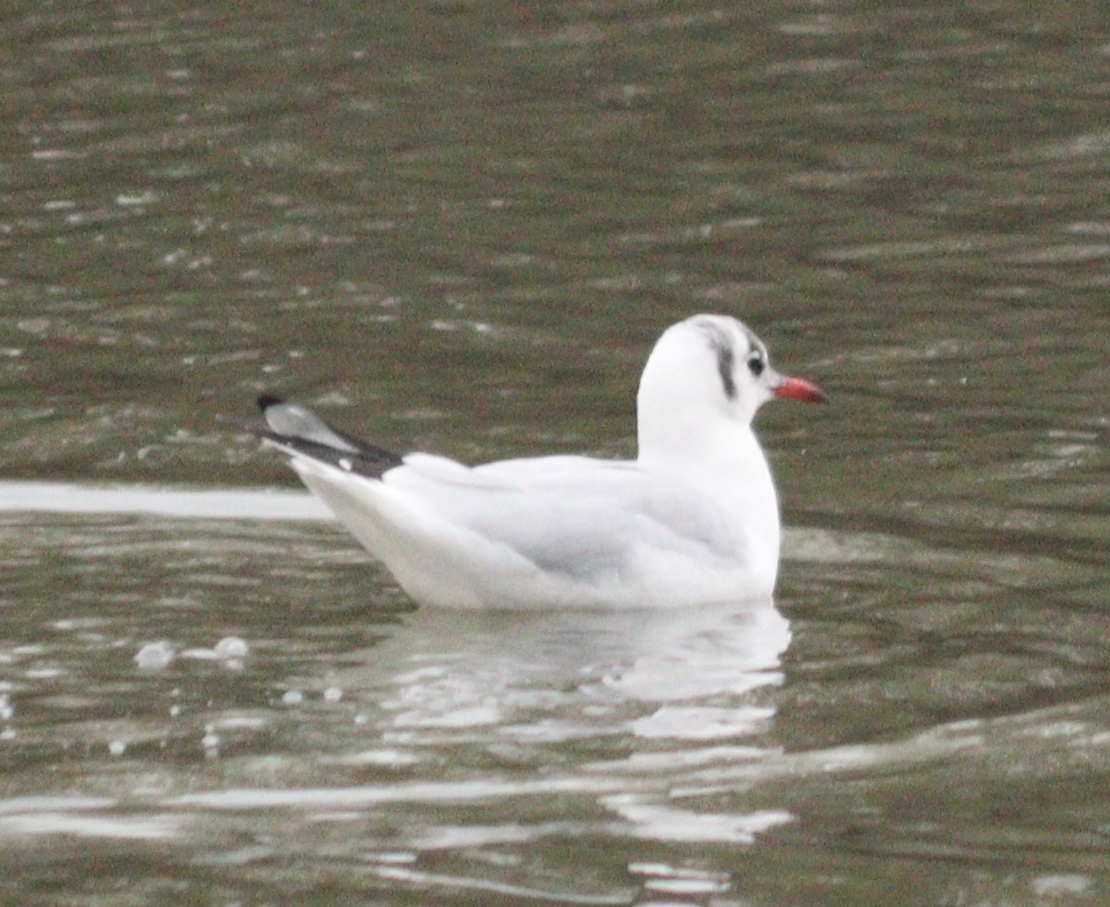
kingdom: Animalia
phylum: Chordata
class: Aves
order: Charadriiformes
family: Laridae
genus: Chroicocephalus
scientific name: Chroicocephalus ridibundus
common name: Black-headed gull
